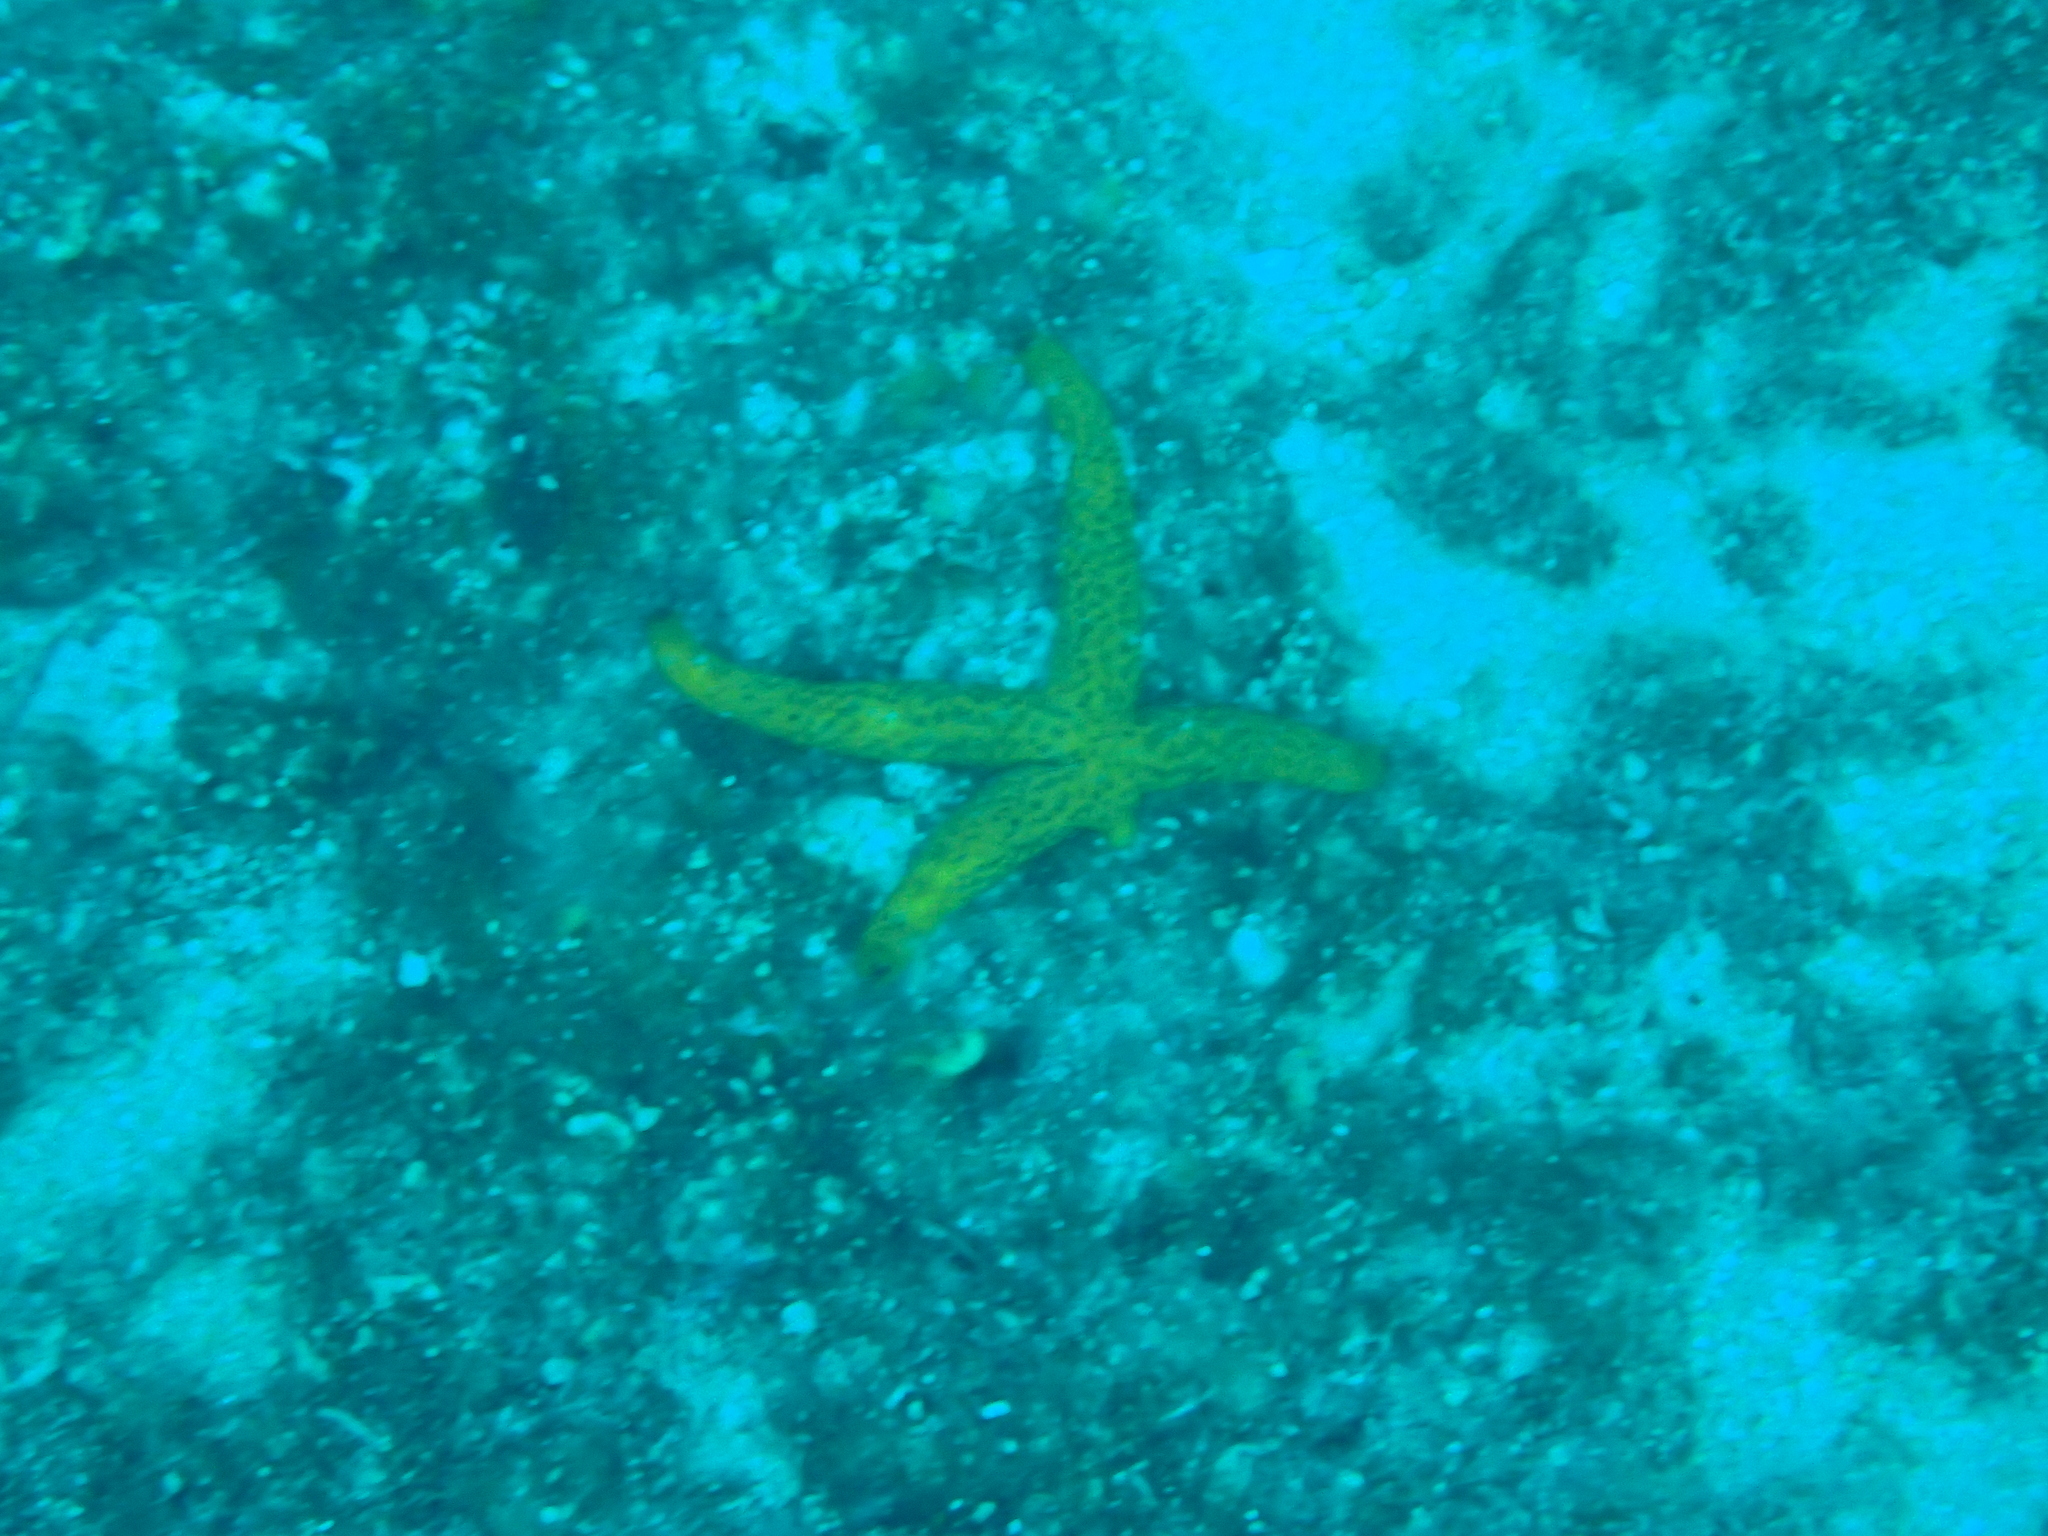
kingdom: Animalia
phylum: Echinodermata
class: Asteroidea
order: Spinulosida
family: Echinasteridae
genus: Echinaster
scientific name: Echinaster sepositus
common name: Red starfish
